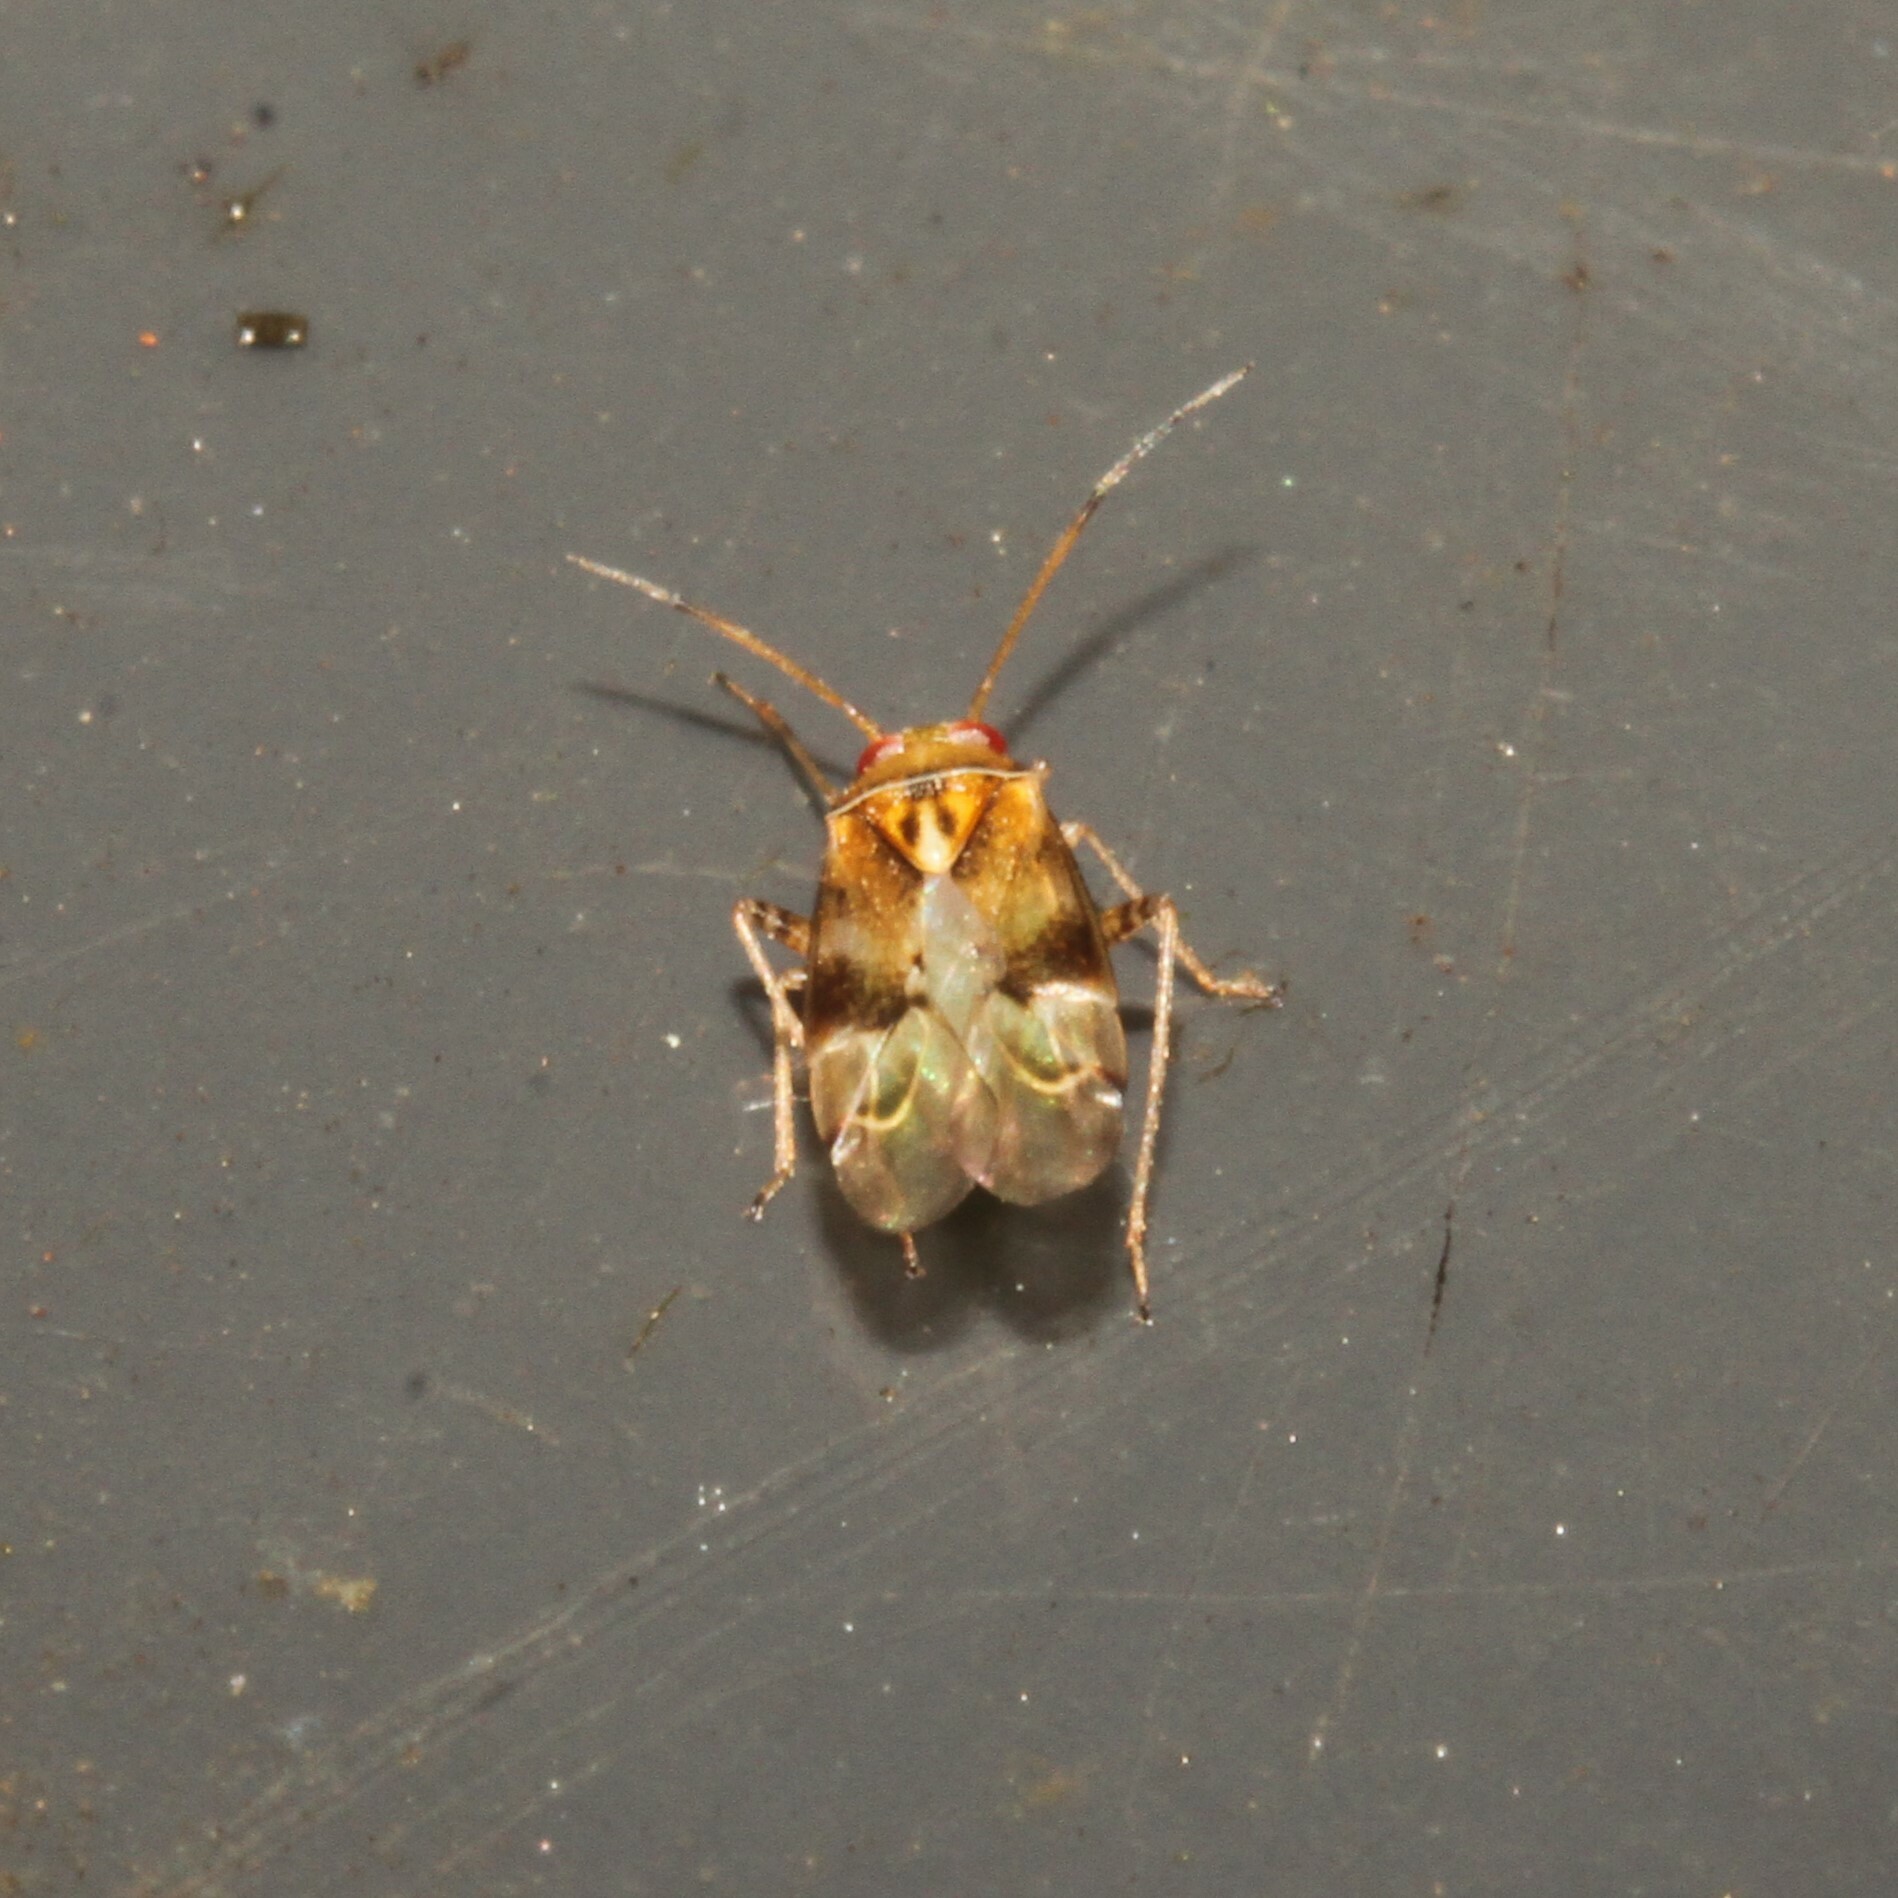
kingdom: Animalia
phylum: Arthropoda
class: Insecta
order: Hemiptera
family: Miridae
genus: Pinalitus
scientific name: Pinalitus cervinus
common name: Plant bug
